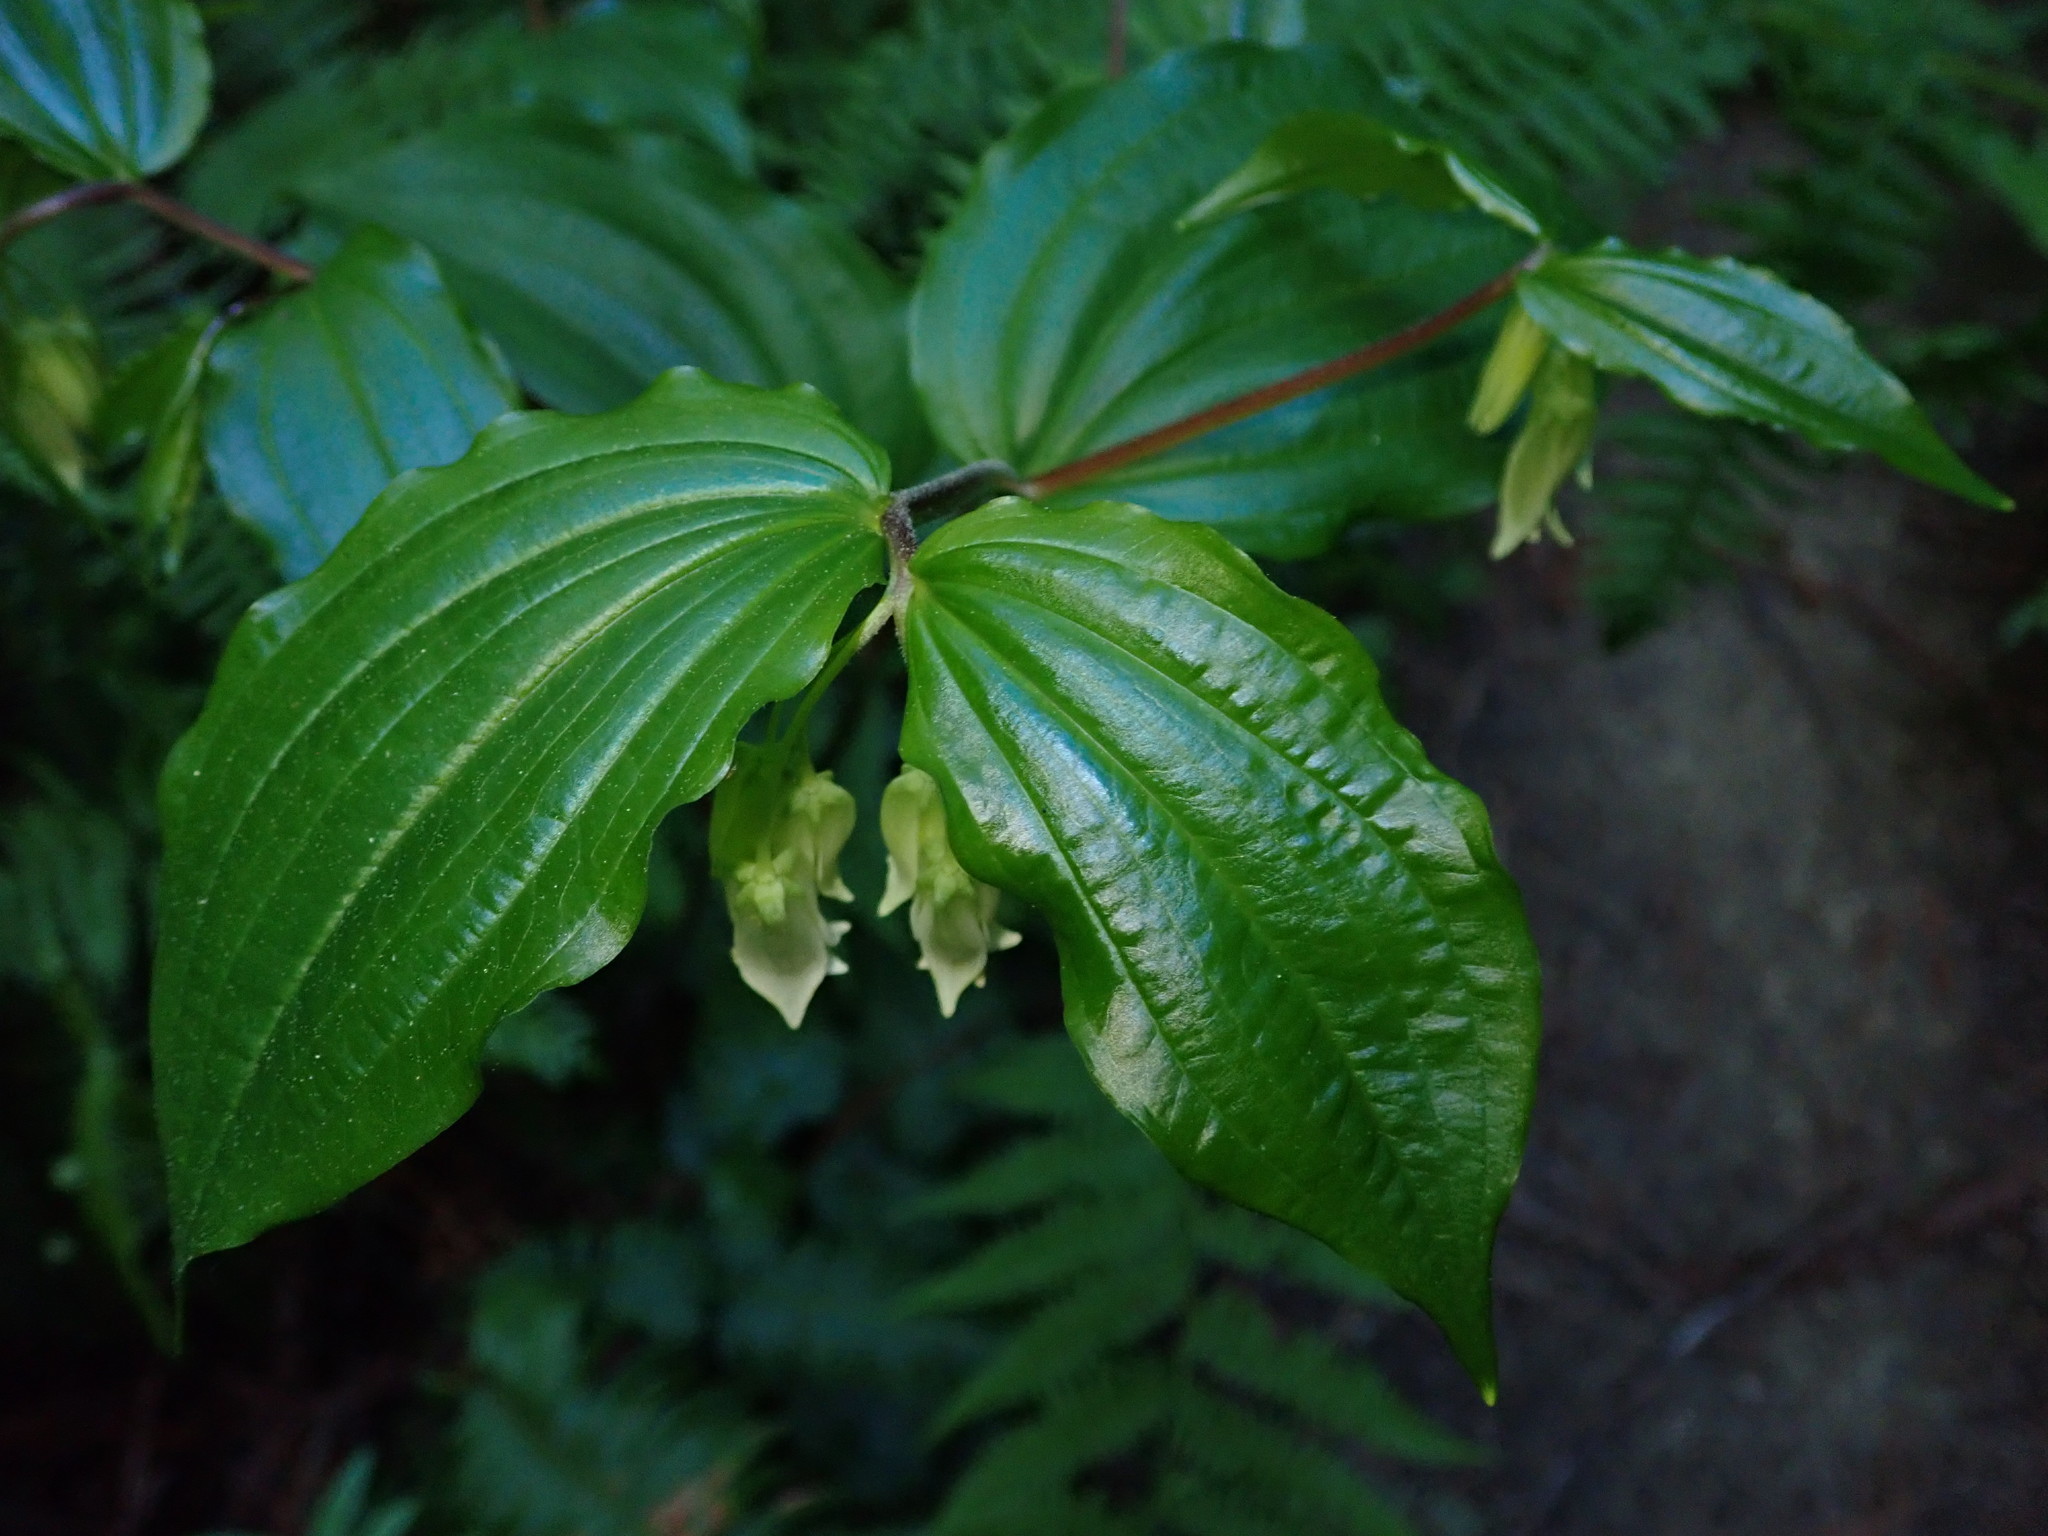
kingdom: Plantae
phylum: Tracheophyta
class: Liliopsida
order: Liliales
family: Liliaceae
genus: Prosartes
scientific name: Prosartes smithii
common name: Fairy-lantern
